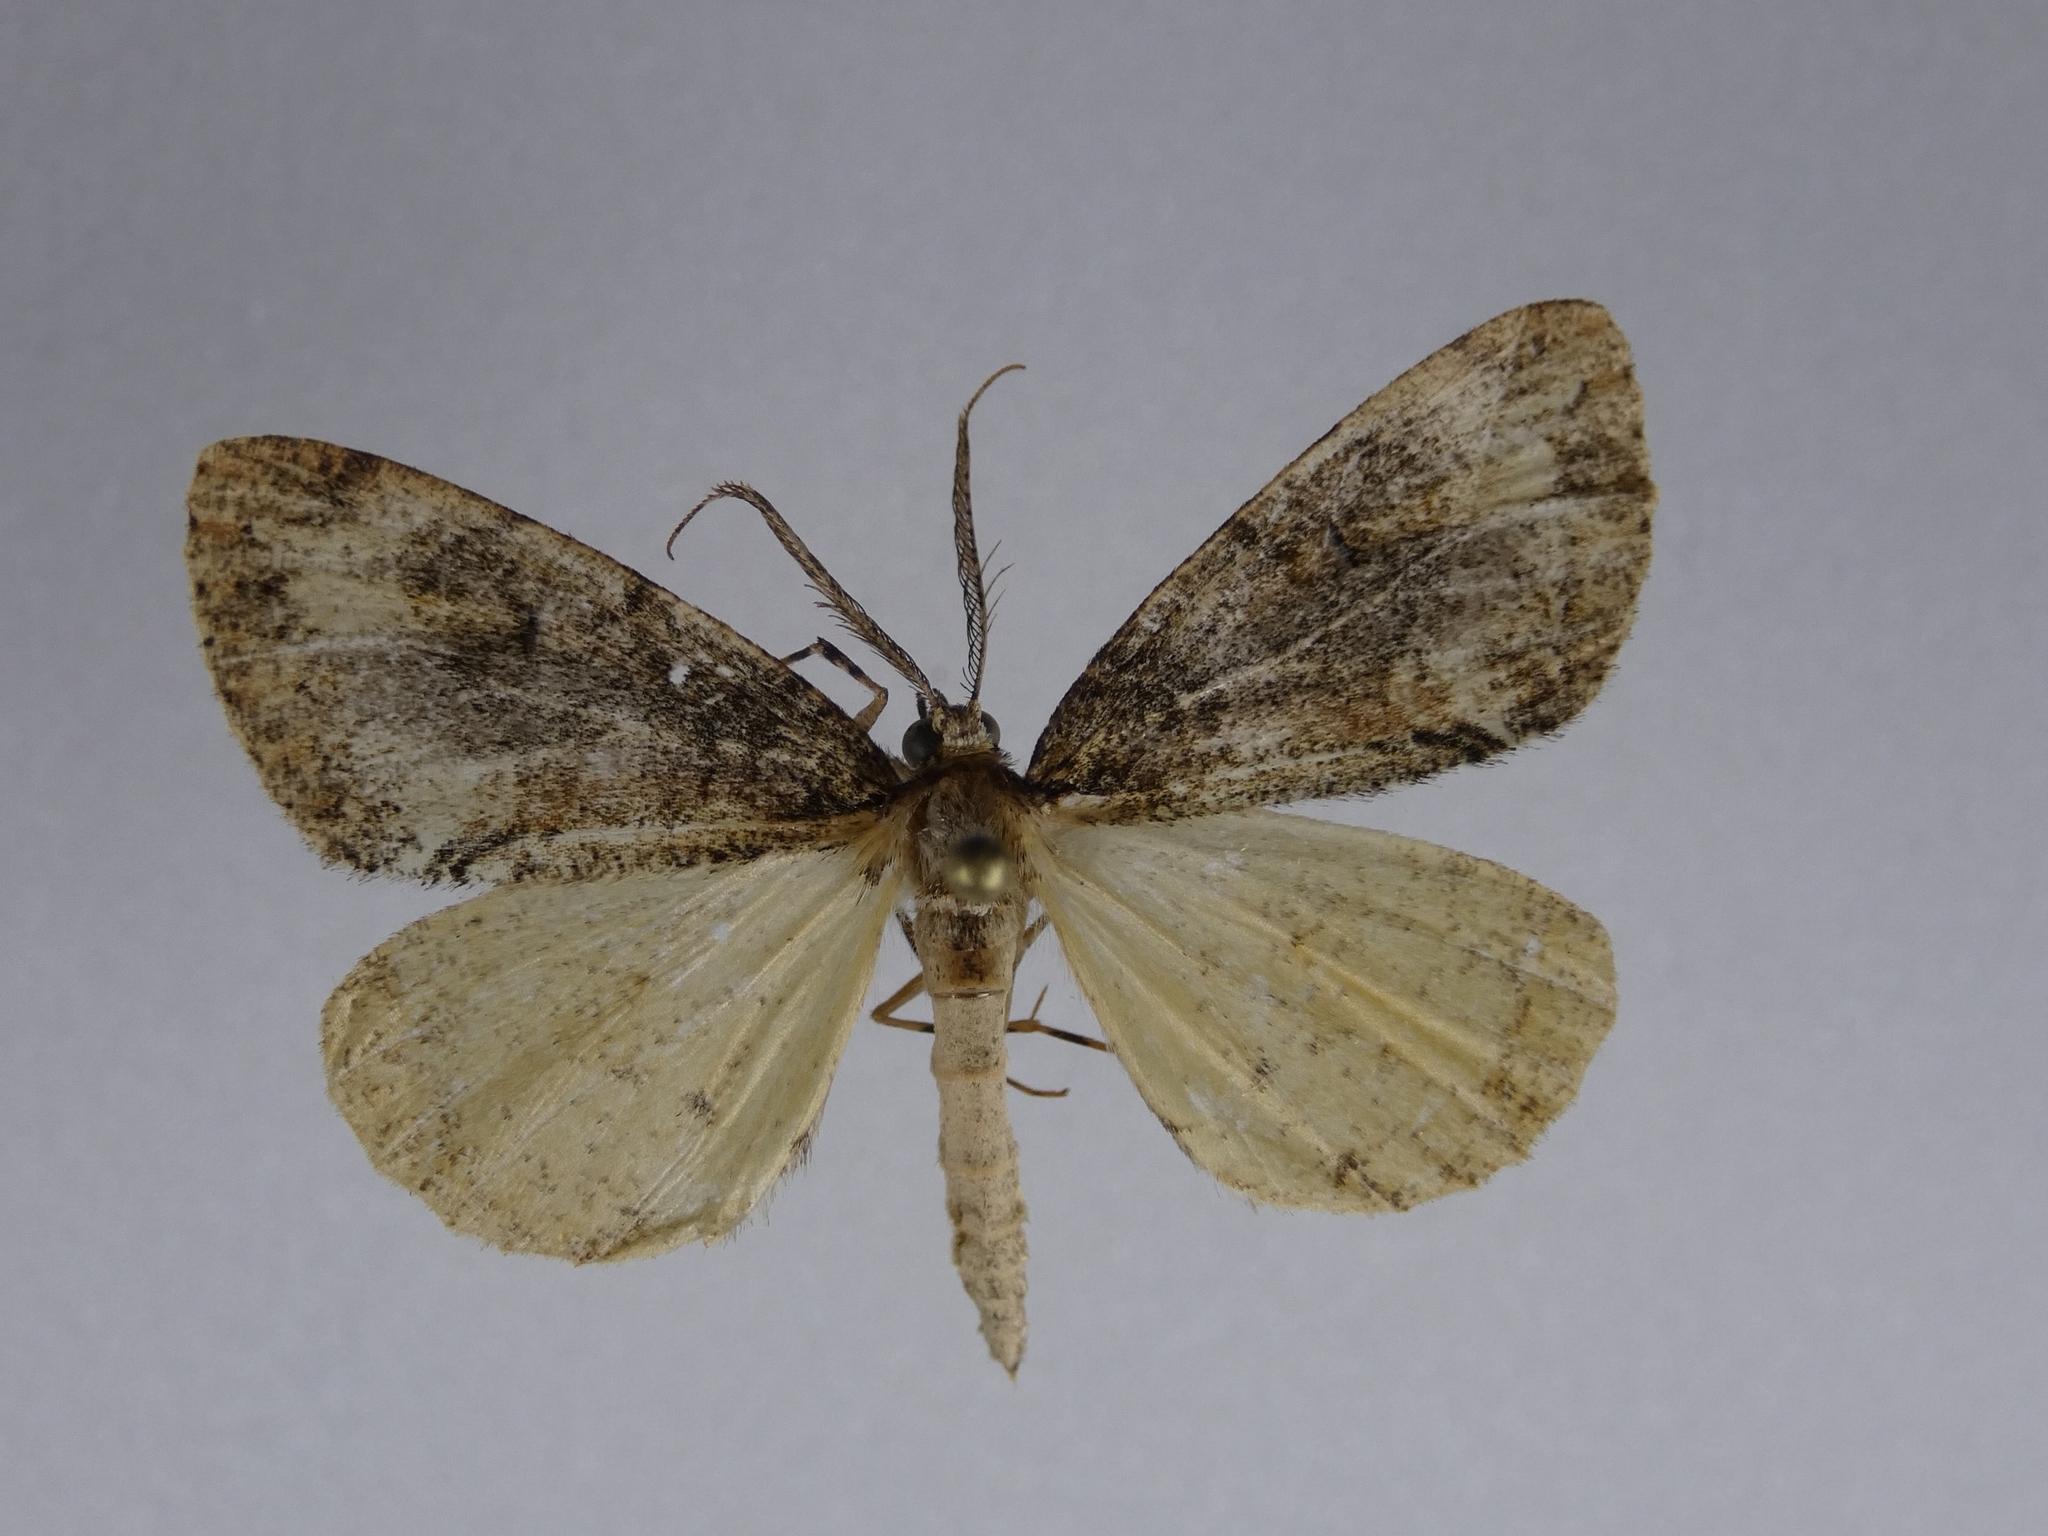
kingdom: Animalia
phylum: Arthropoda
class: Insecta
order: Lepidoptera
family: Geometridae
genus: Pseudocoremia
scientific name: Pseudocoremia suavis
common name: Common forest looper
